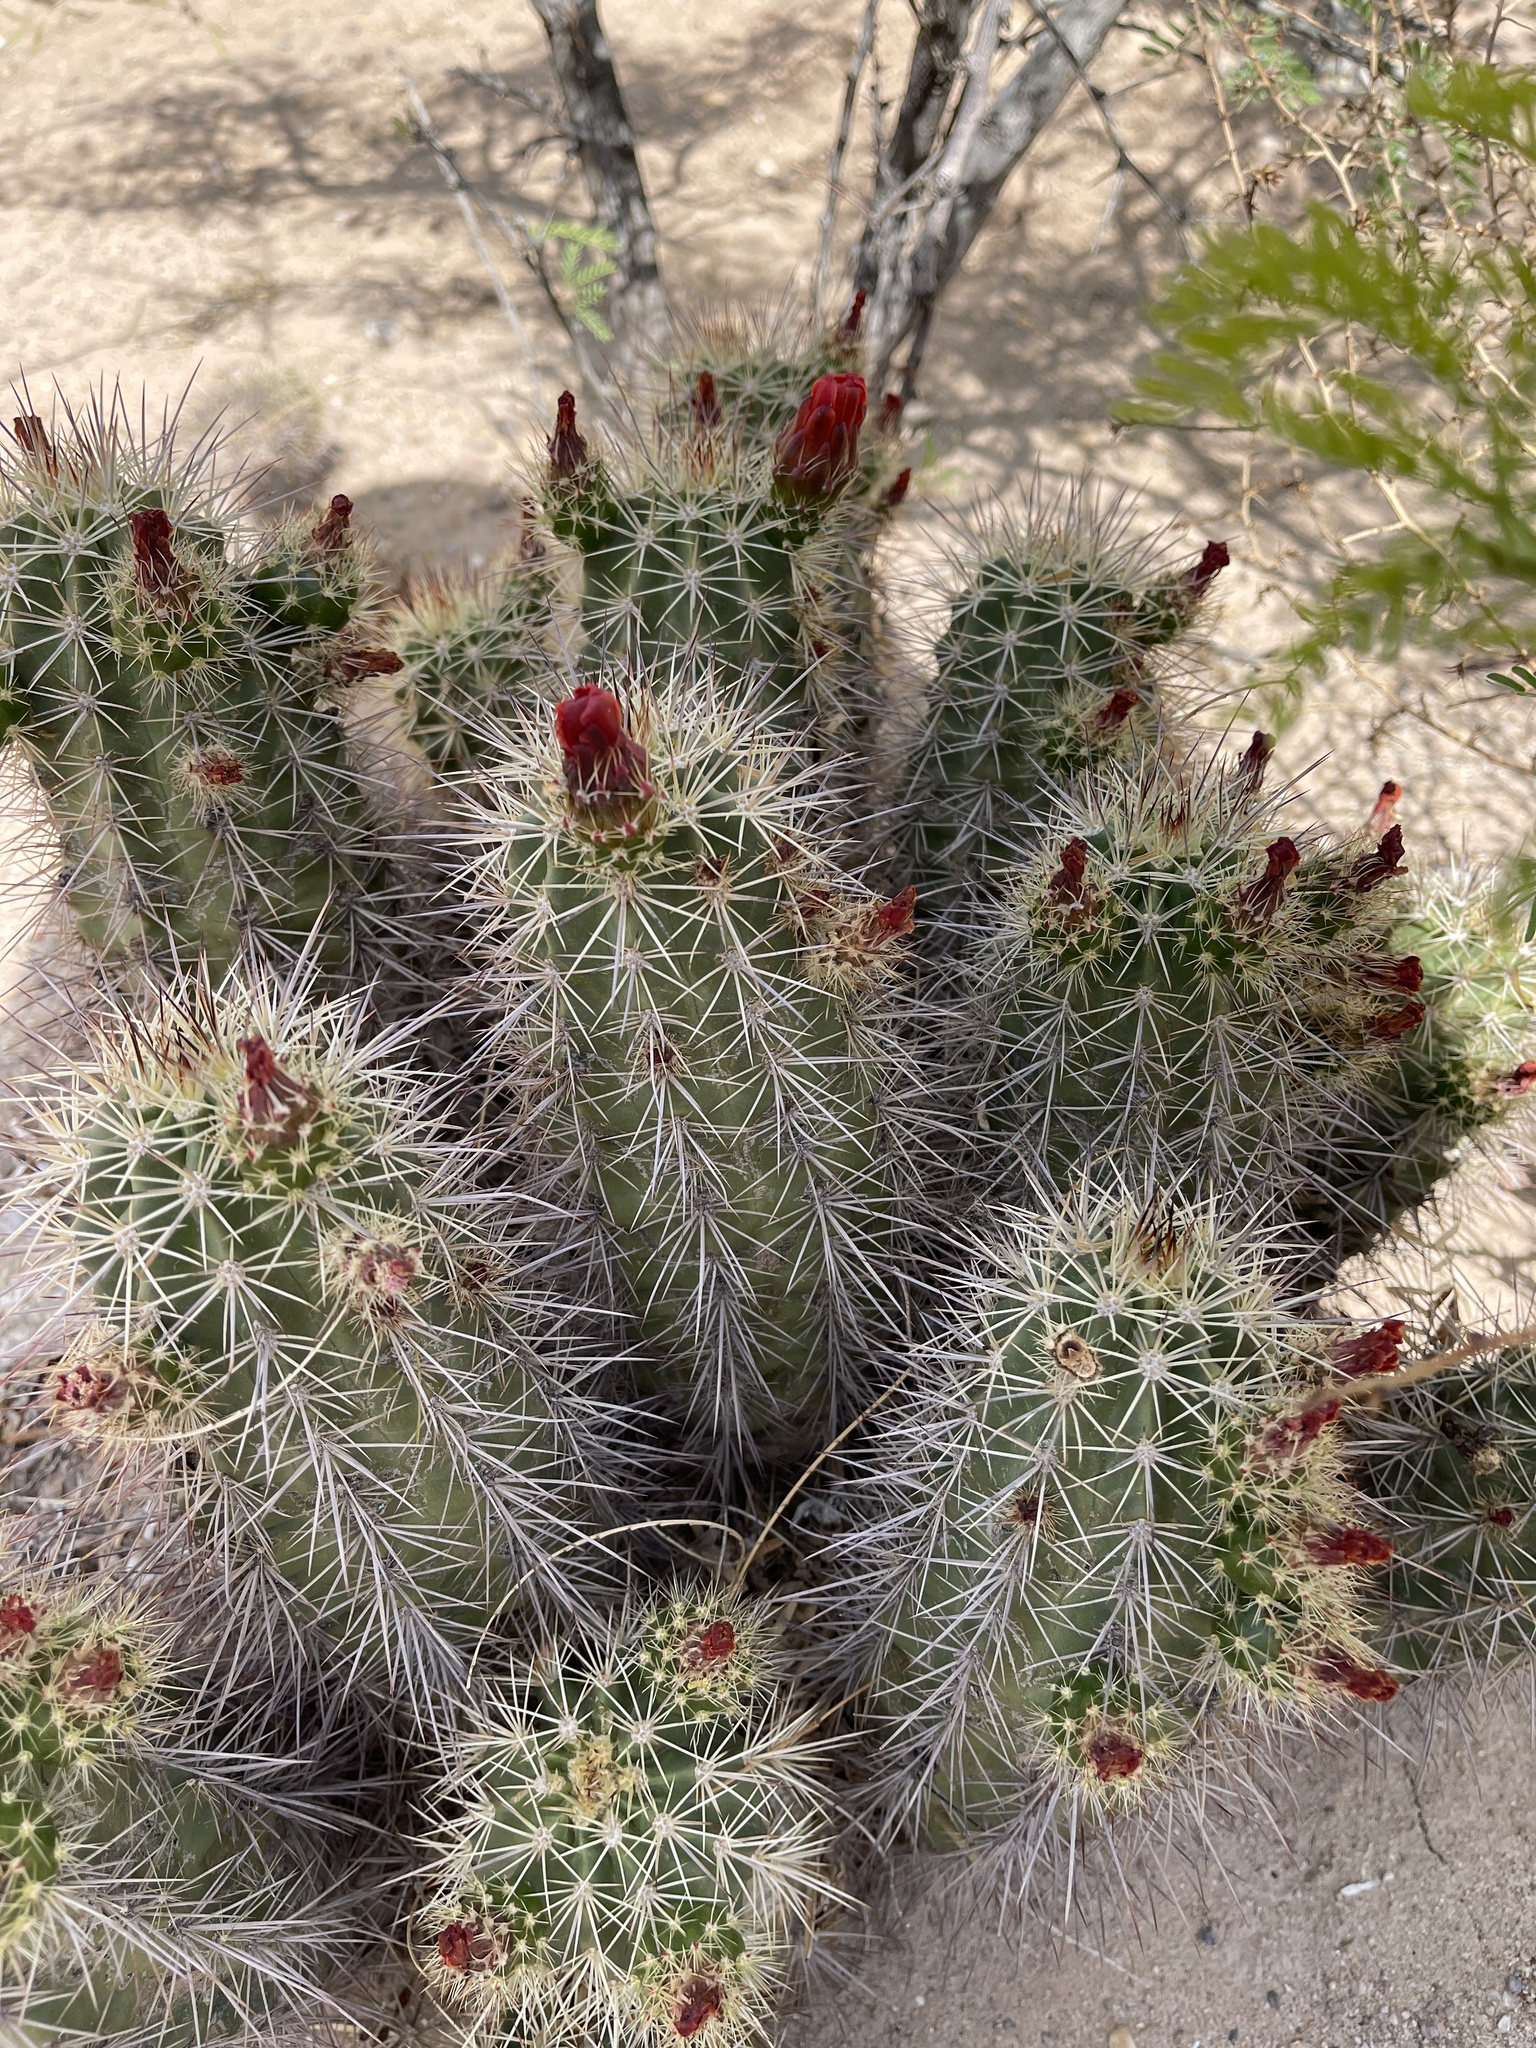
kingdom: Plantae
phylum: Tracheophyta
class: Magnoliopsida
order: Caryophyllales
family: Cactaceae
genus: Echinocereus
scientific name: Echinocereus coccineus
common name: Scarlet hedgehog cactus
